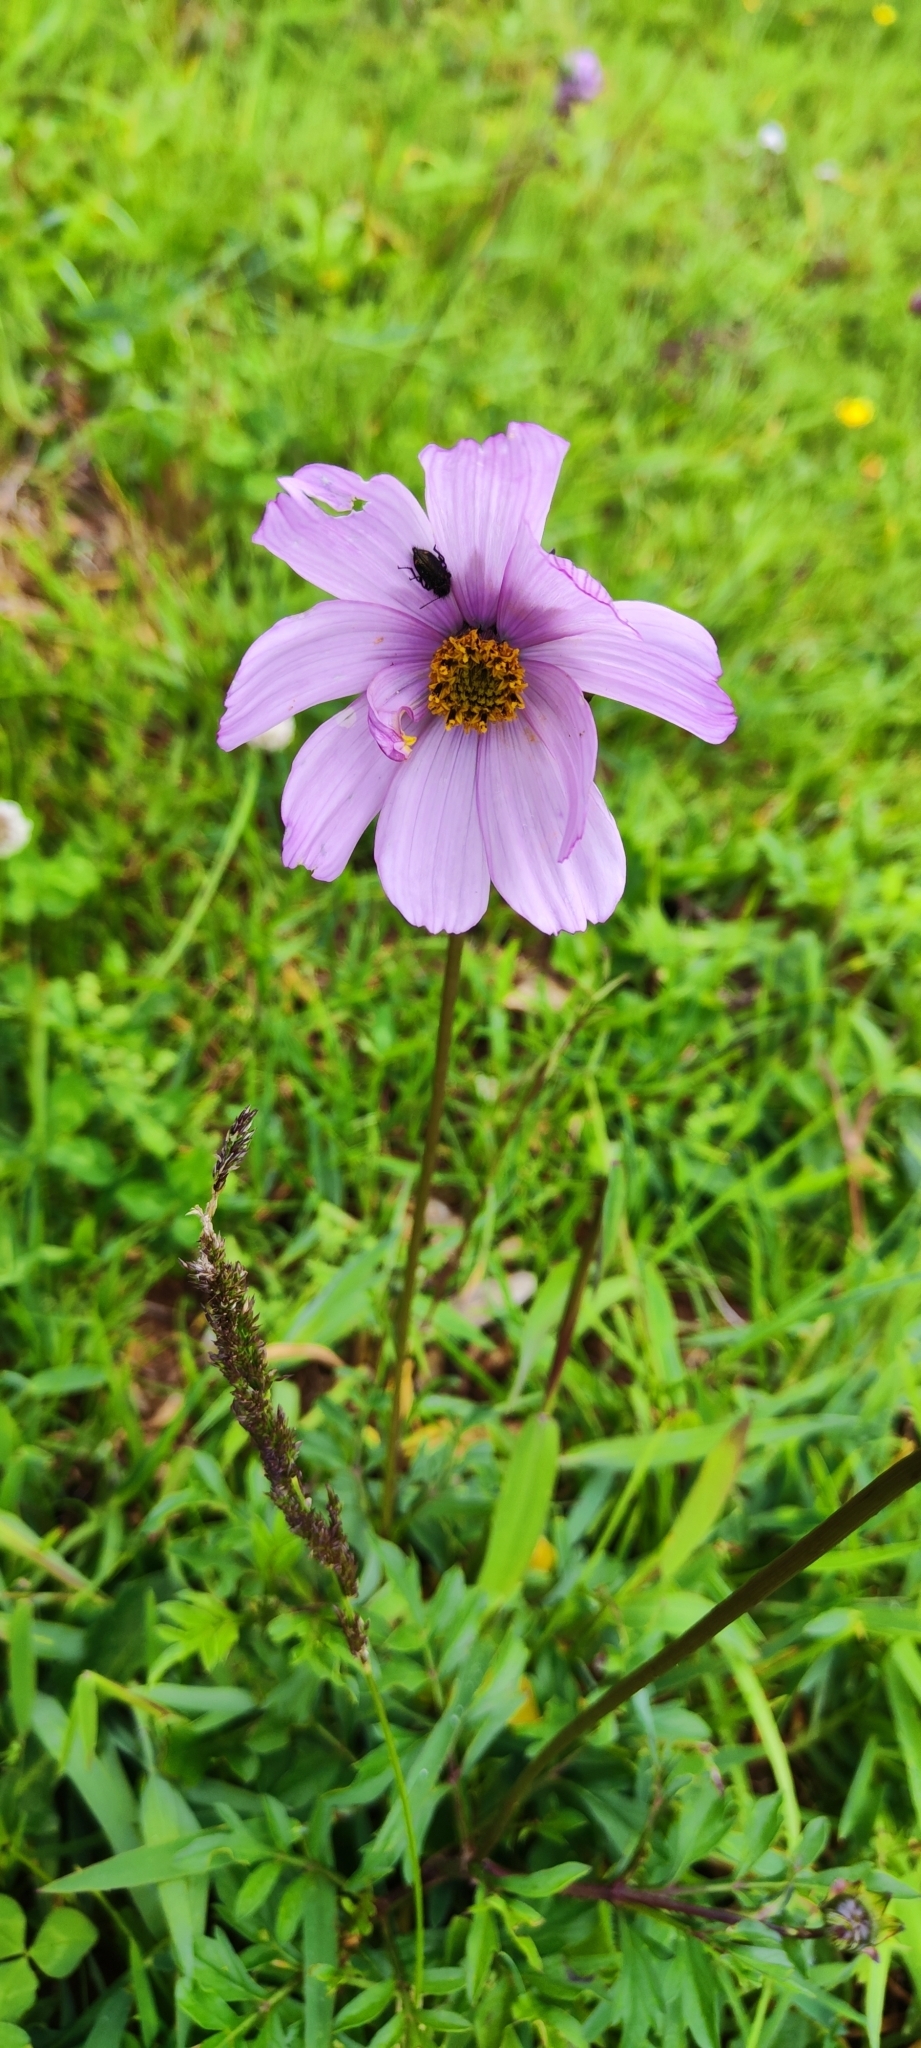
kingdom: Plantae
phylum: Tracheophyta
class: Magnoliopsida
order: Asterales
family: Asteraceae
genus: Cosmos
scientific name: Cosmos peucedanifolius
